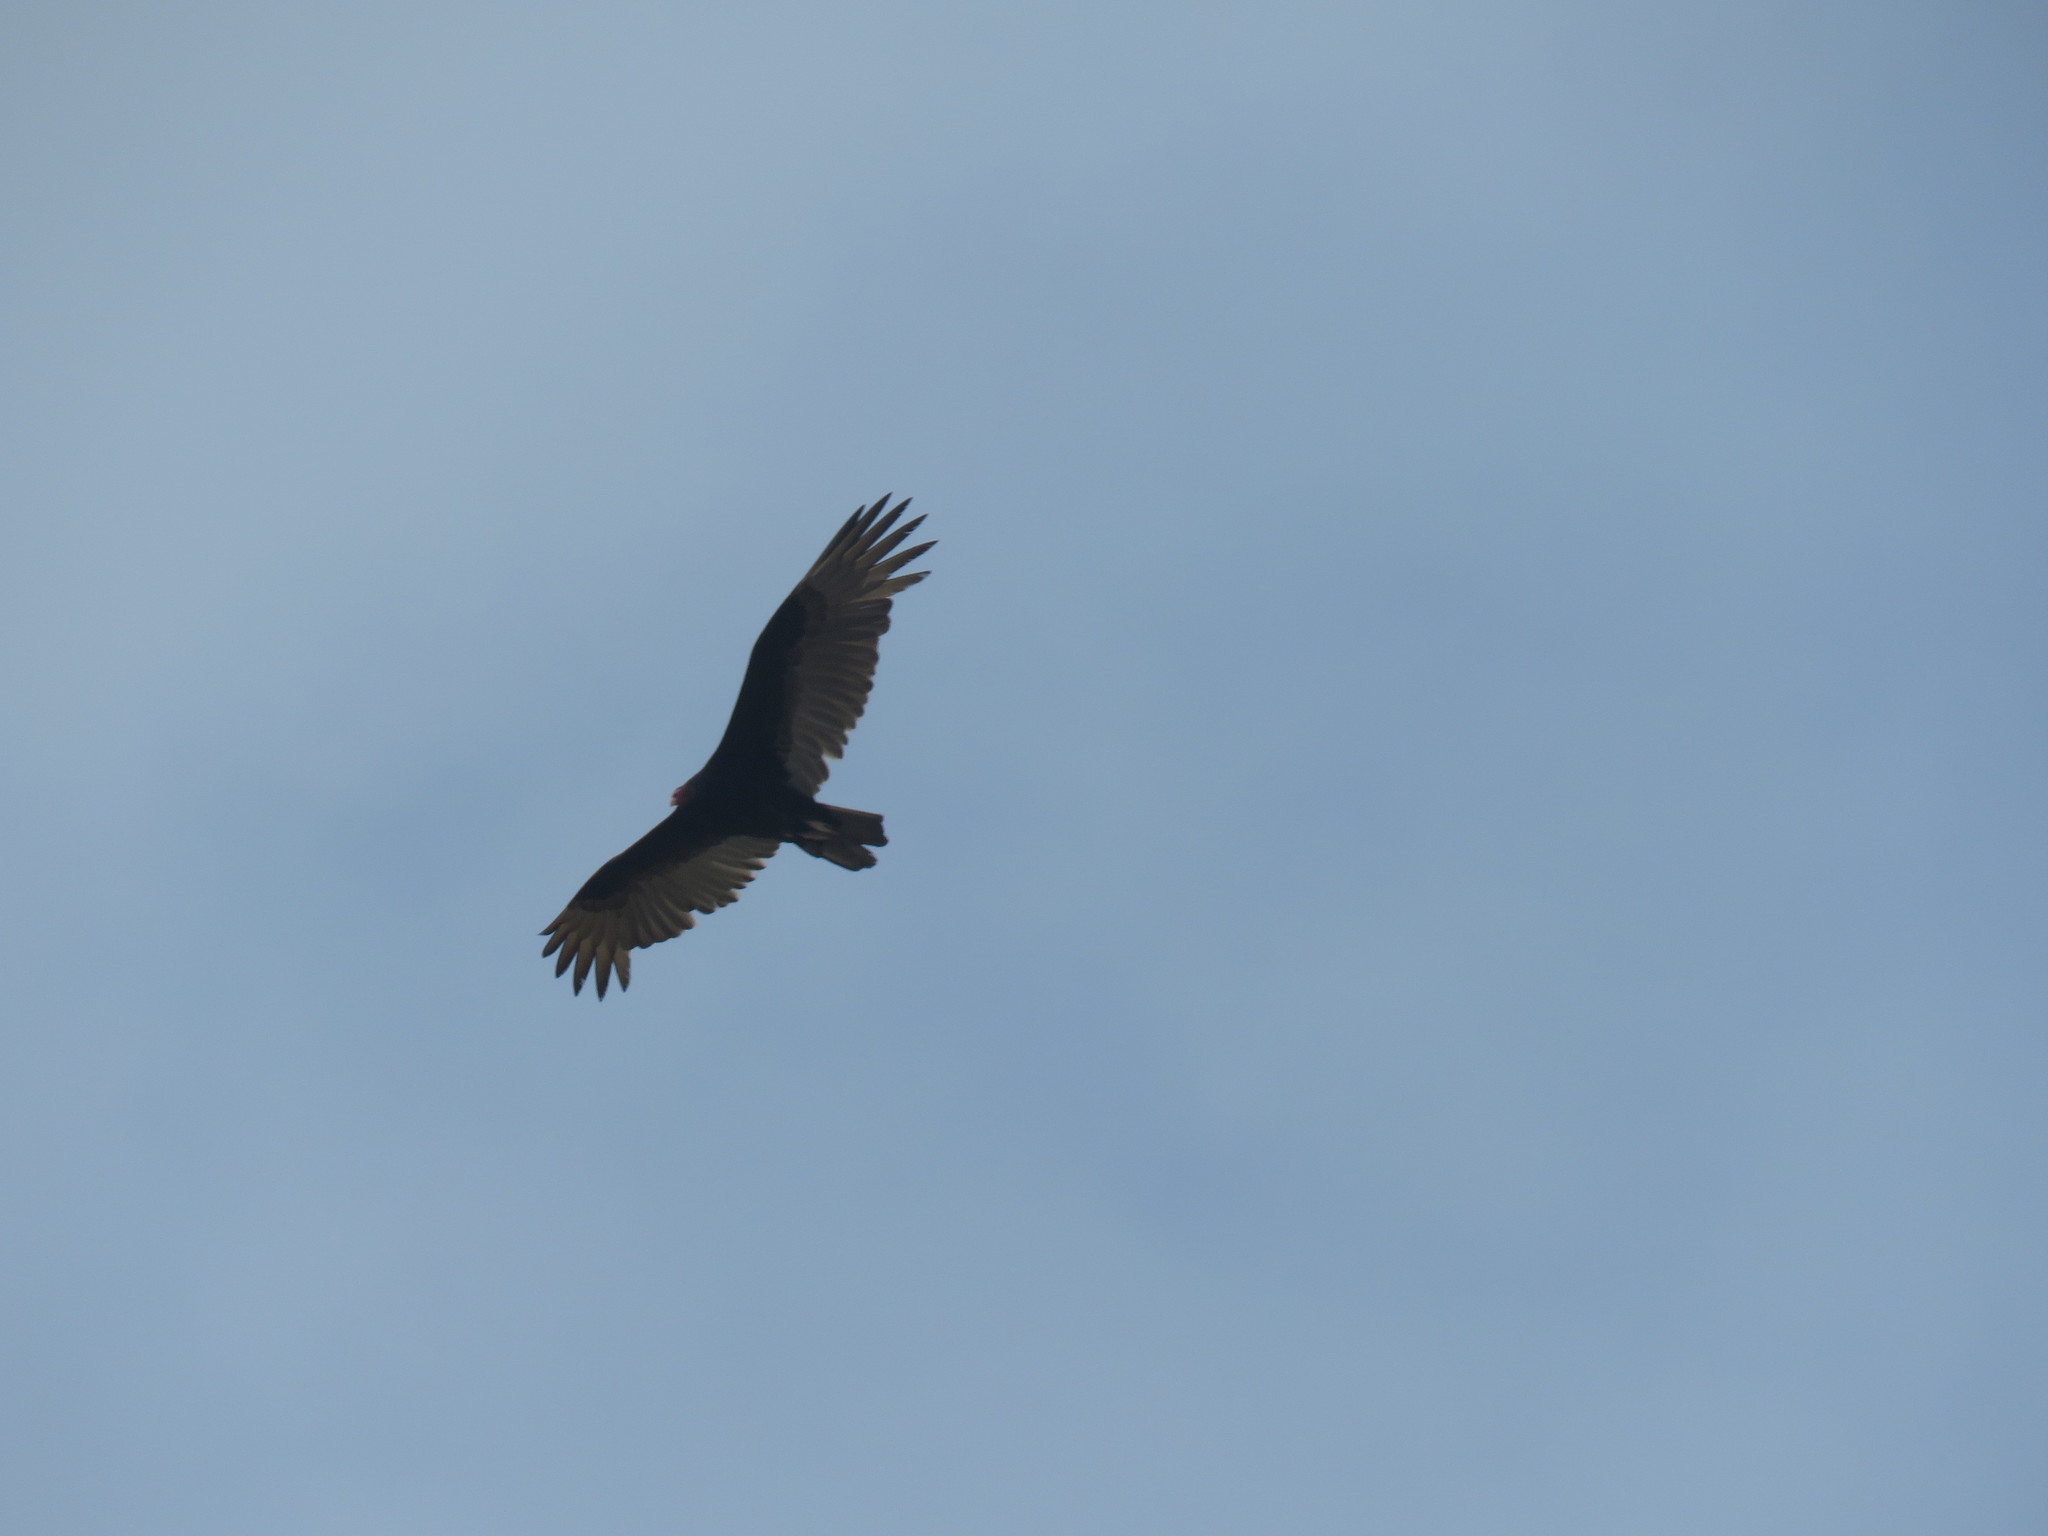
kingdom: Animalia
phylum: Chordata
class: Aves
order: Accipitriformes
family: Cathartidae
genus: Cathartes
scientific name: Cathartes aura
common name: Turkey vulture
